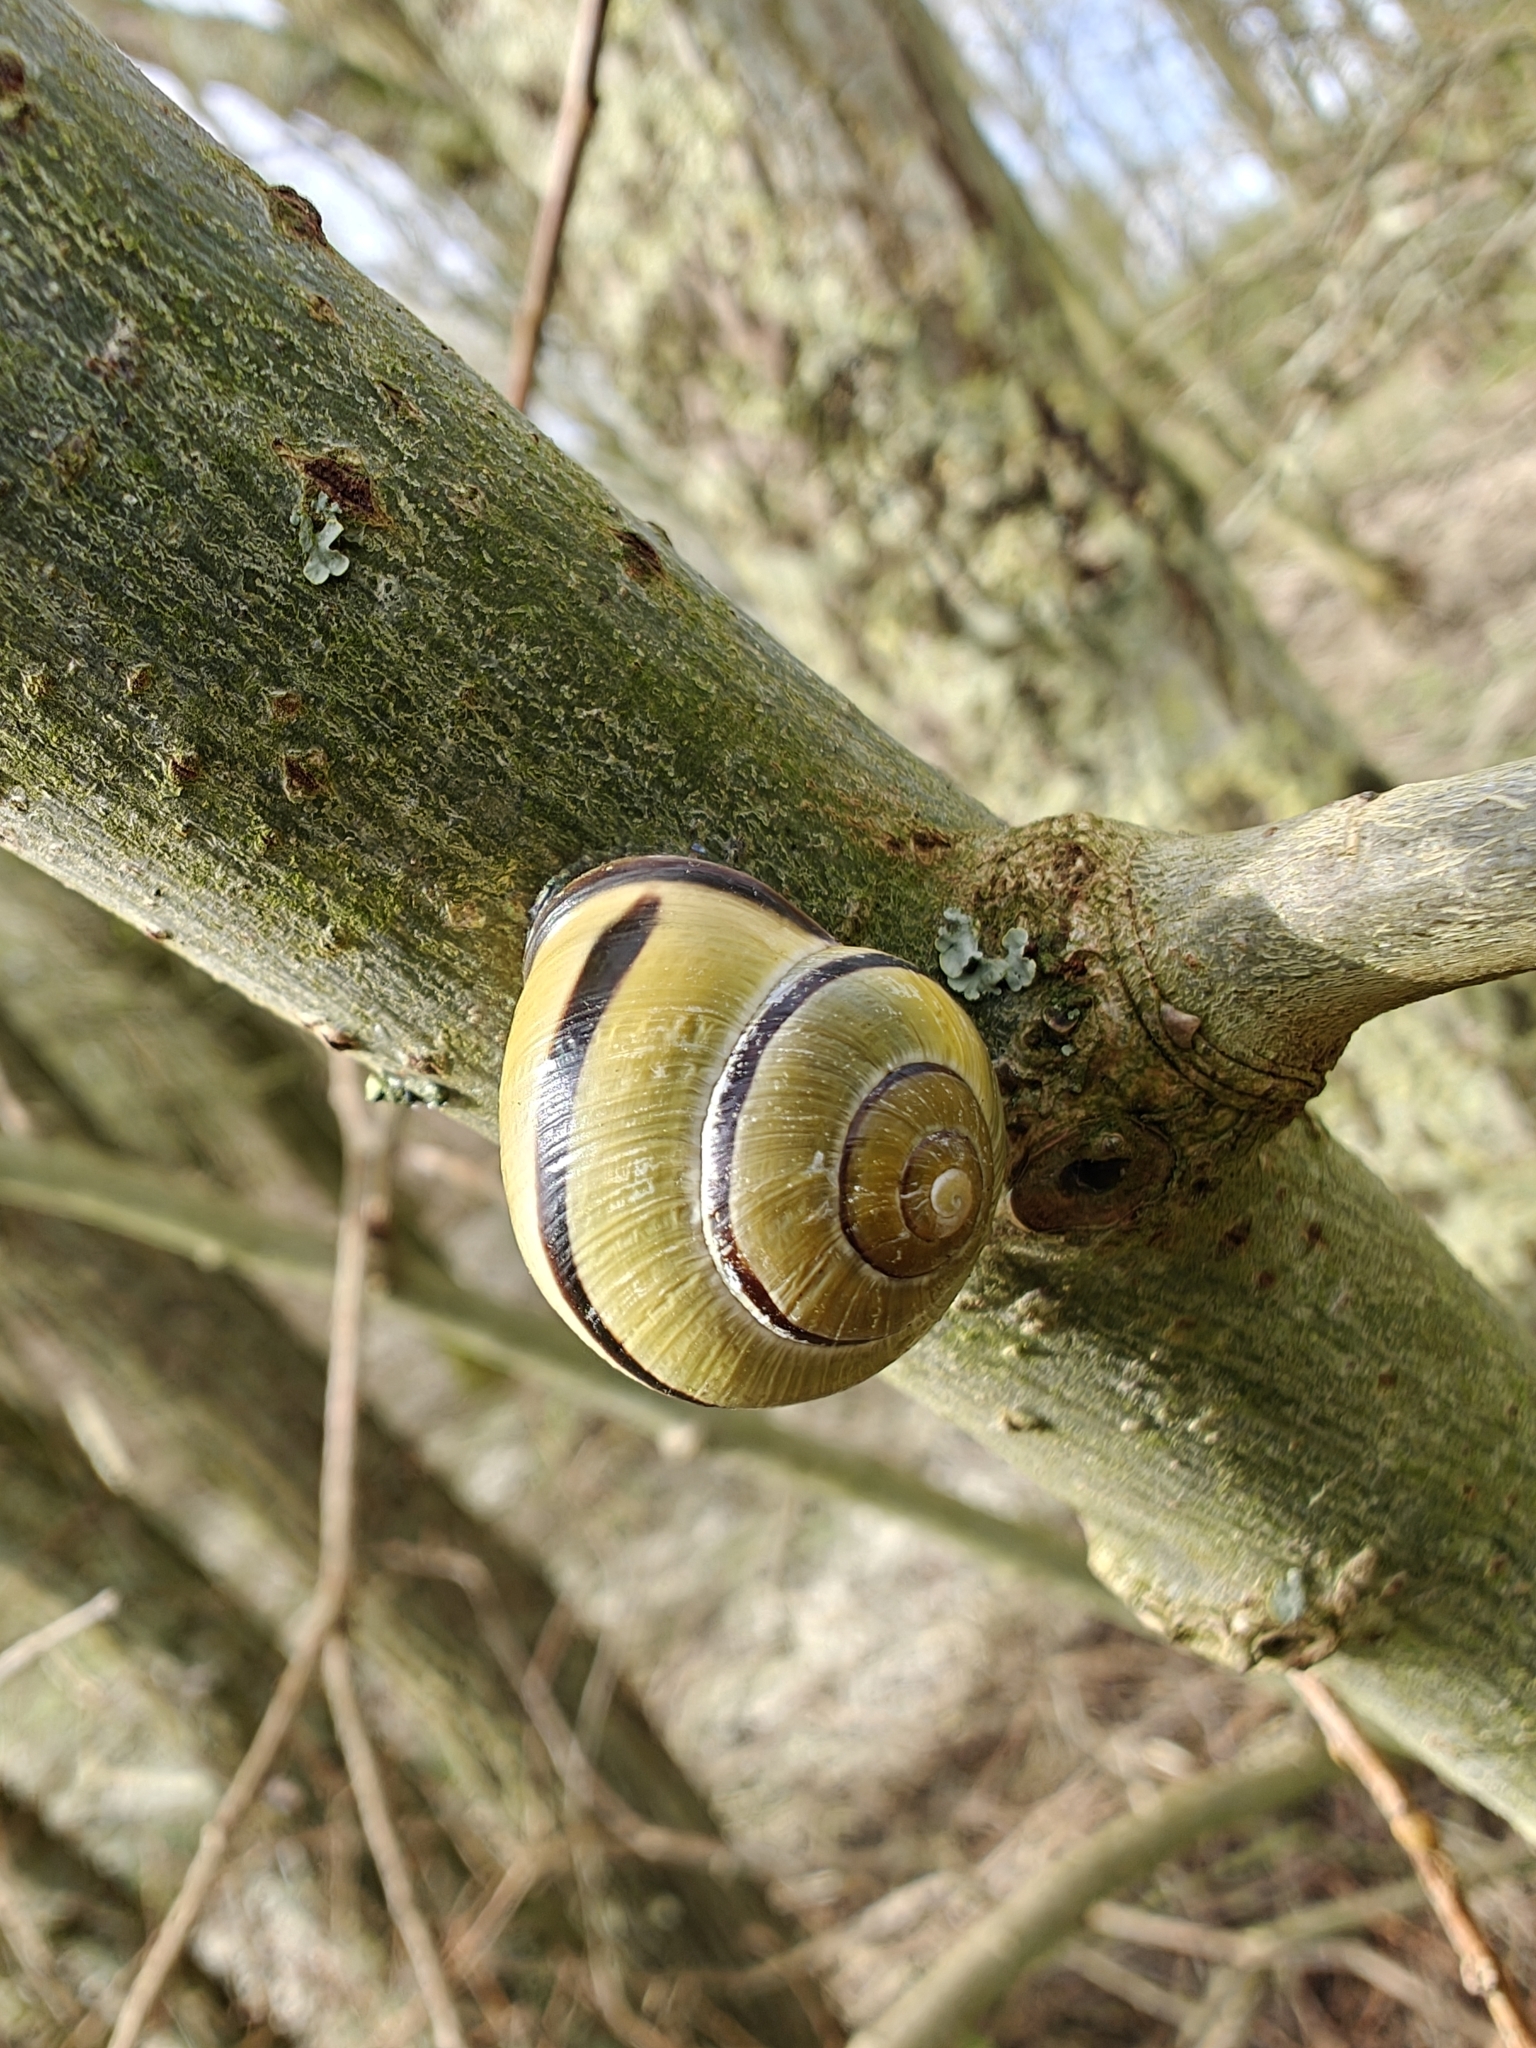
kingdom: Animalia
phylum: Mollusca
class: Gastropoda
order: Stylommatophora
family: Helicidae
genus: Cepaea
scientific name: Cepaea nemoralis
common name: Grovesnail
